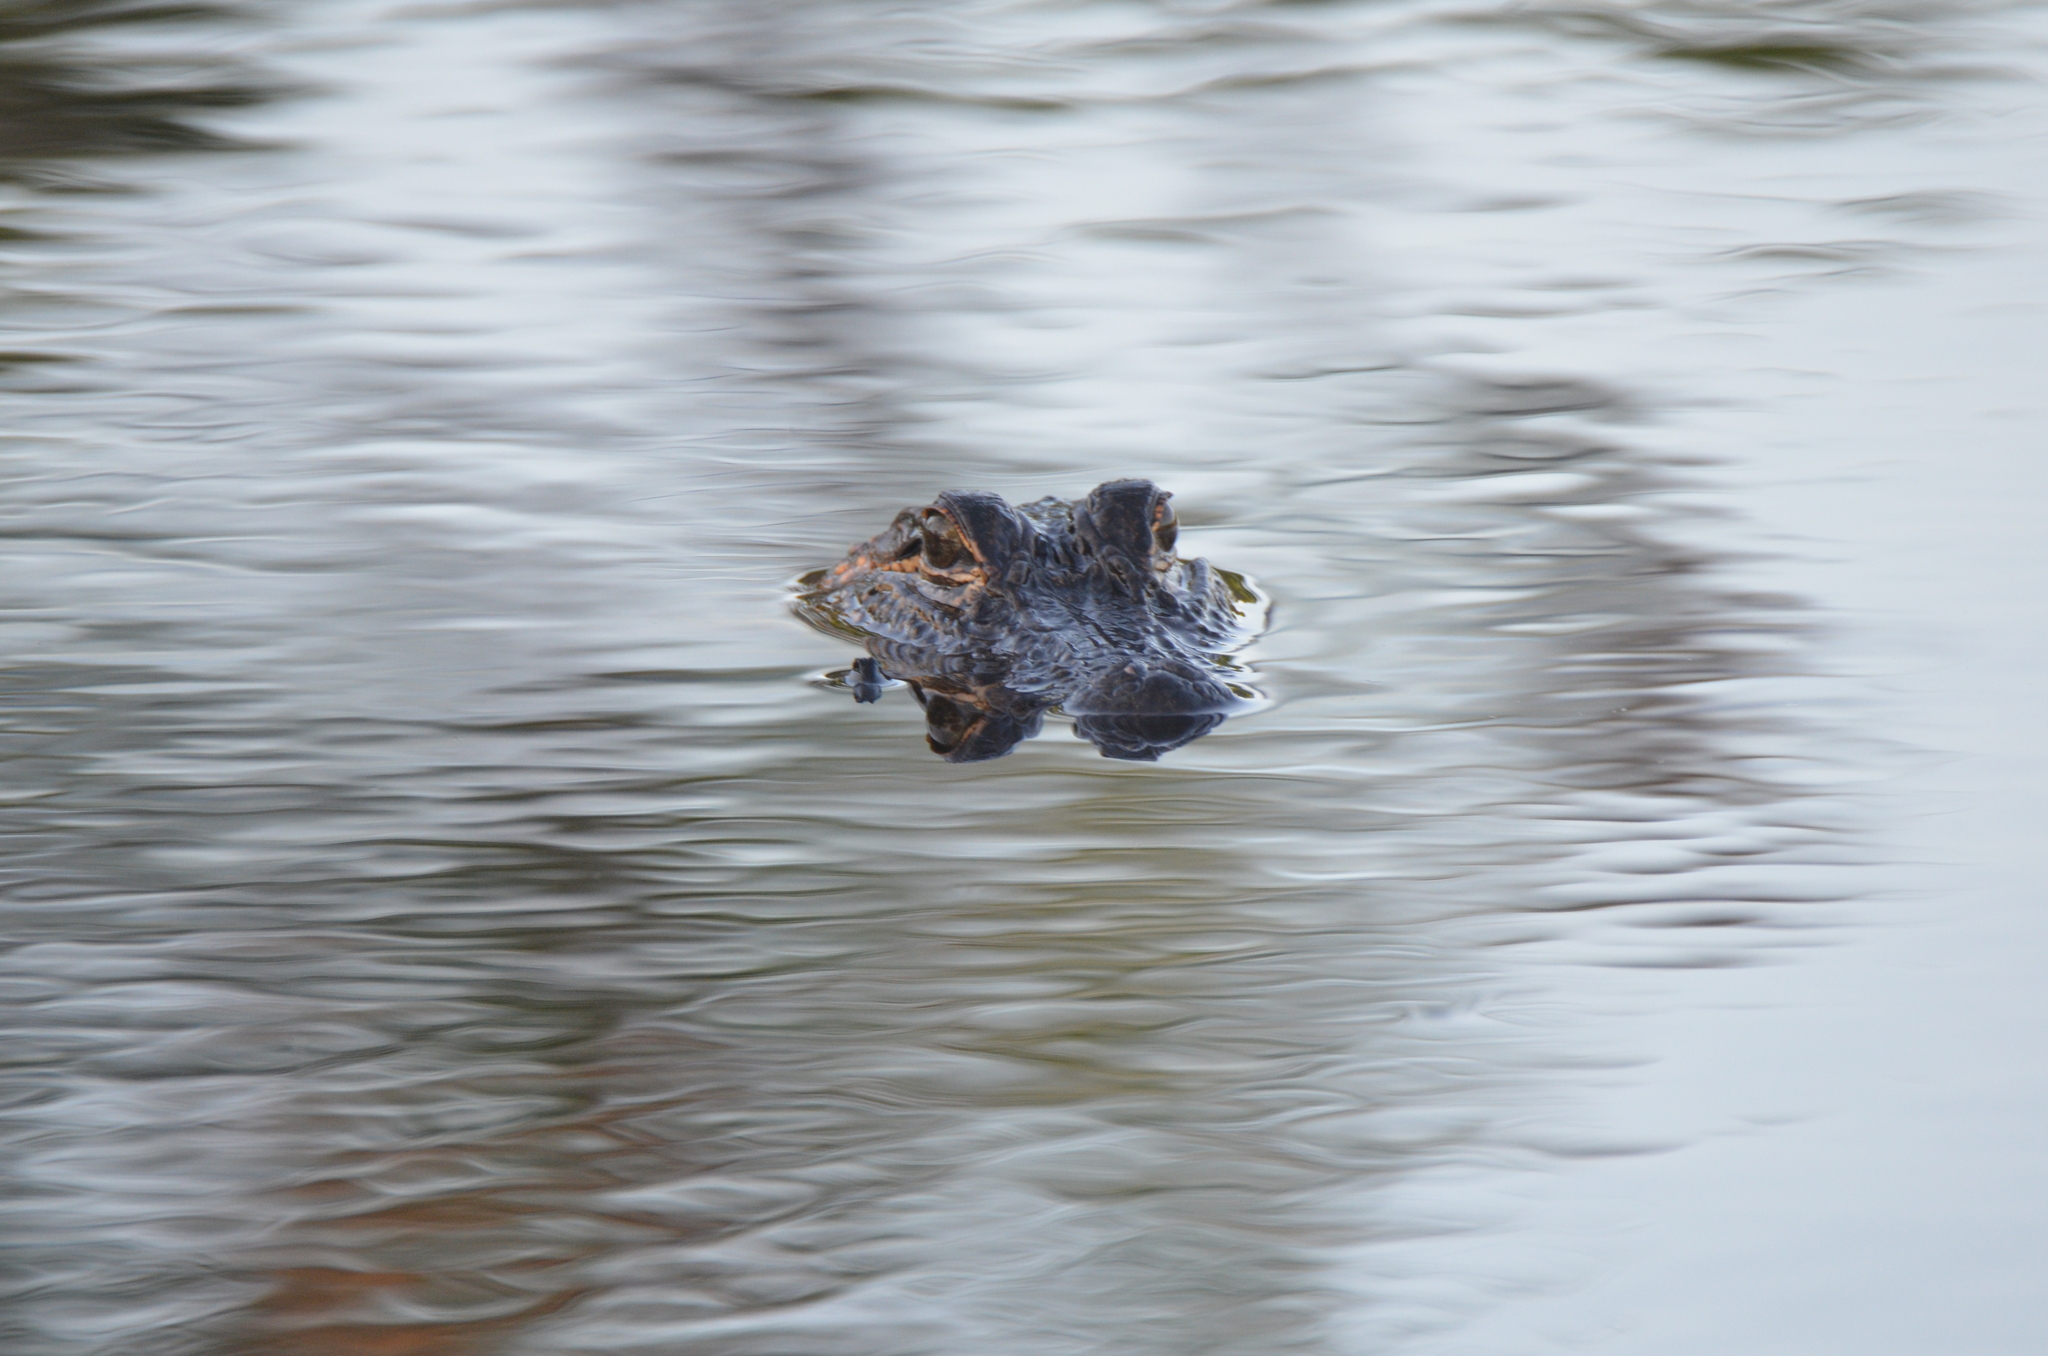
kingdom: Animalia
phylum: Chordata
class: Crocodylia
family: Alligatoridae
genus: Alligator
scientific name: Alligator mississippiensis
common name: American alligator
